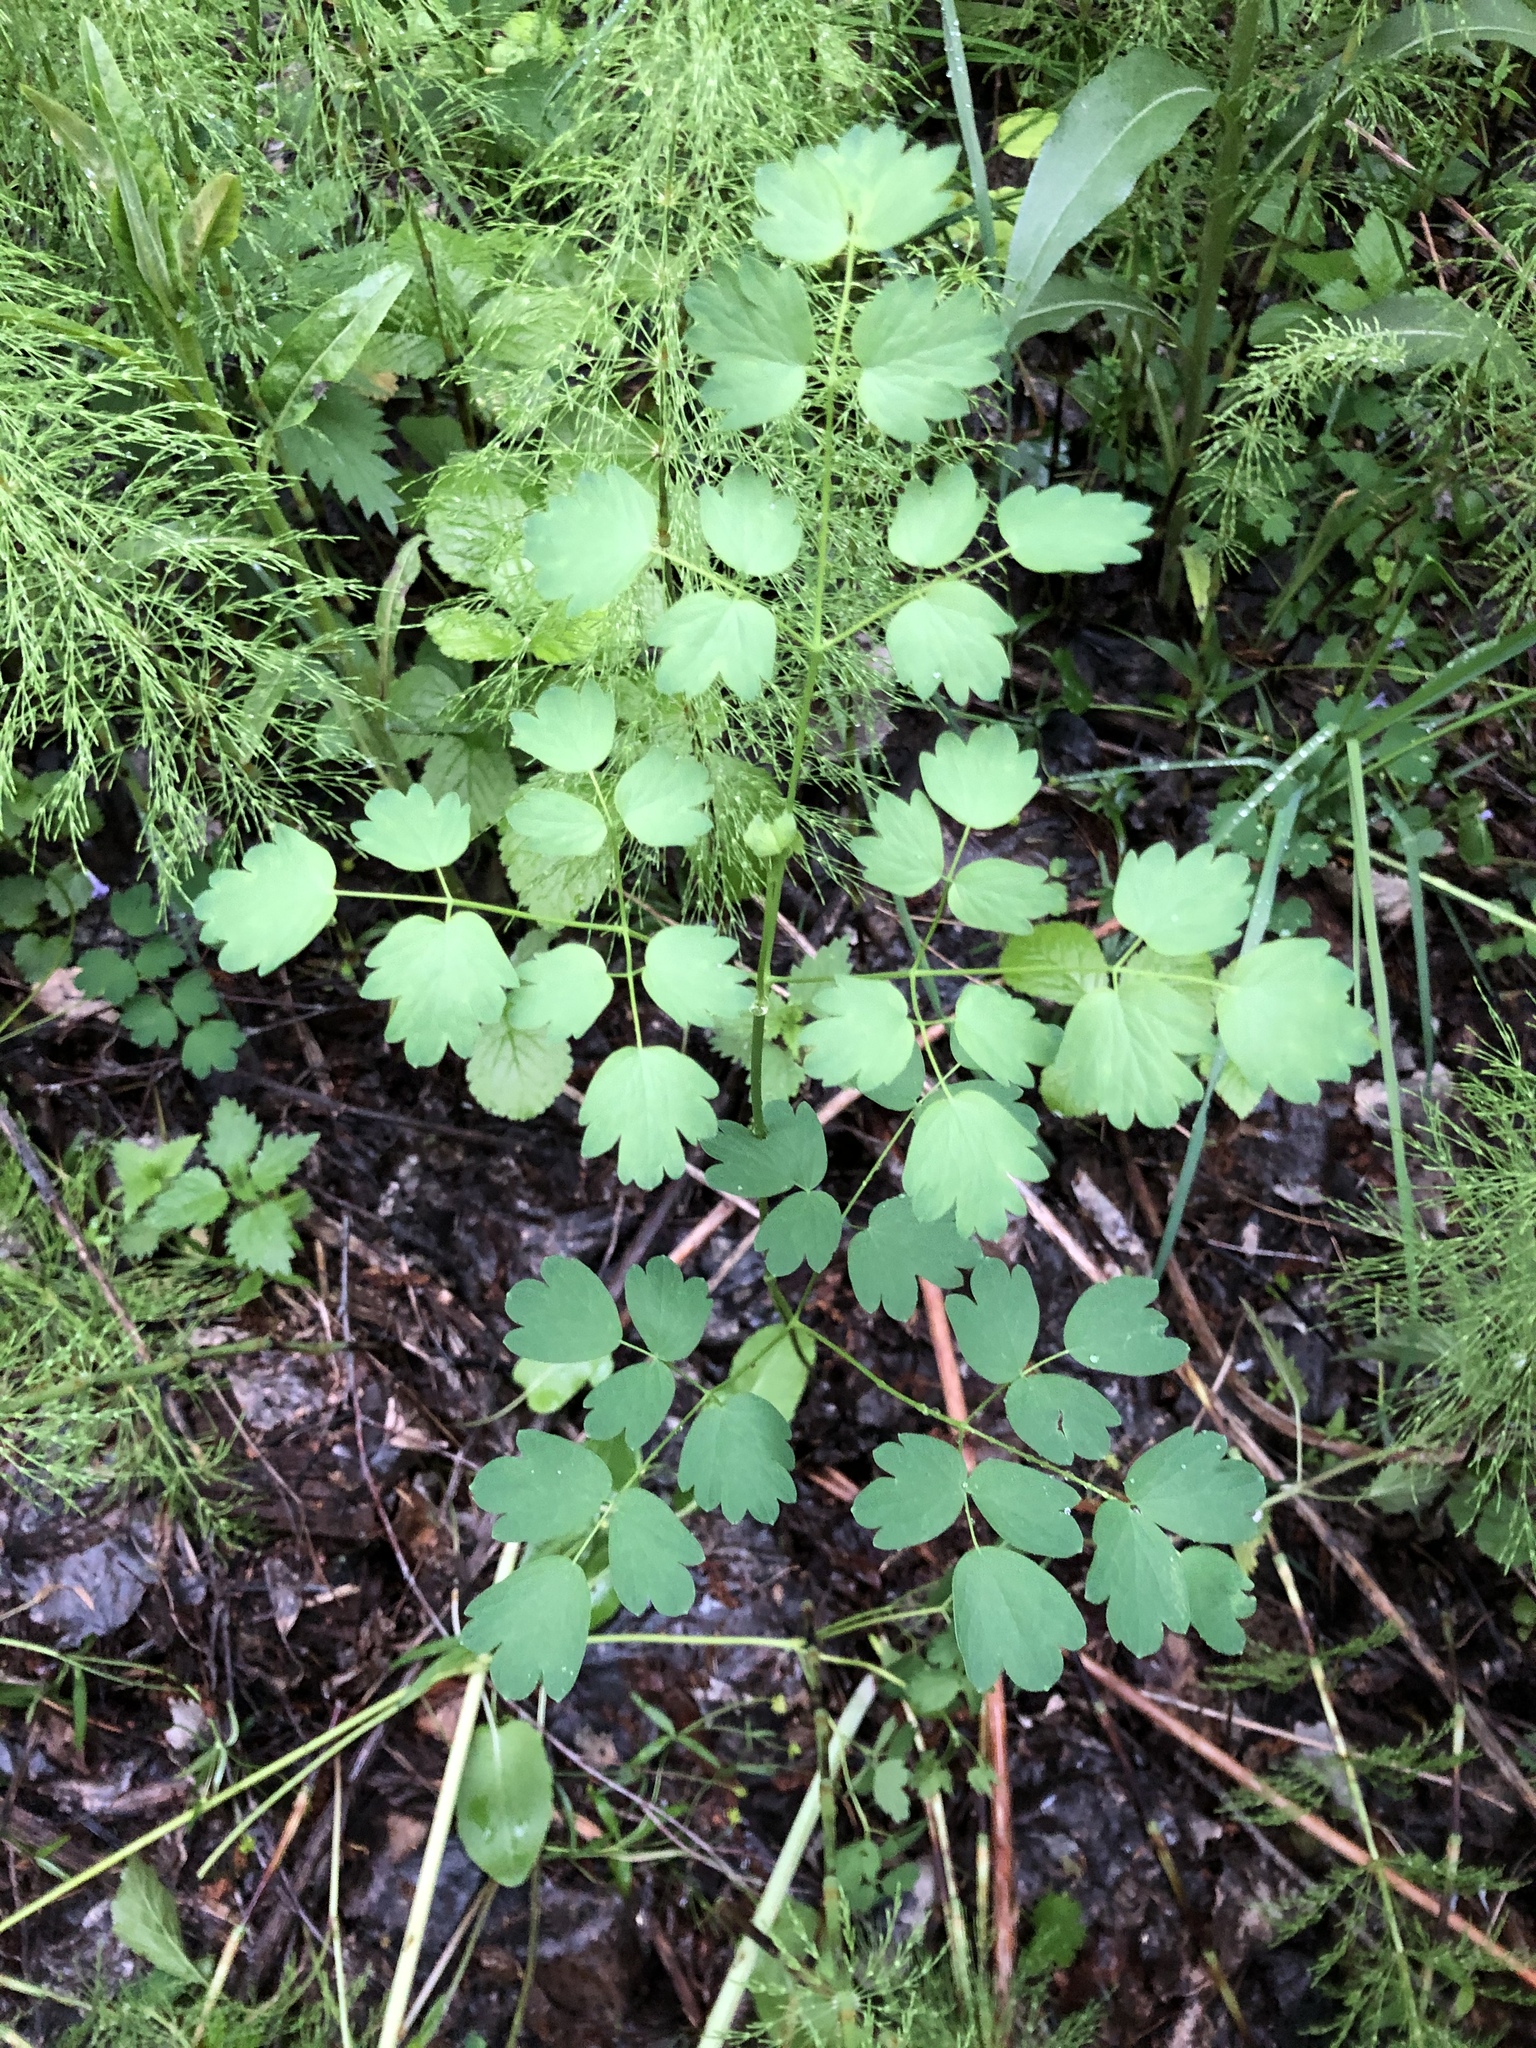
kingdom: Plantae
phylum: Tracheophyta
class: Magnoliopsida
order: Ranunculales
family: Ranunculaceae
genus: Thalictrum
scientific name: Thalictrum minus
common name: Lesser meadow-rue
